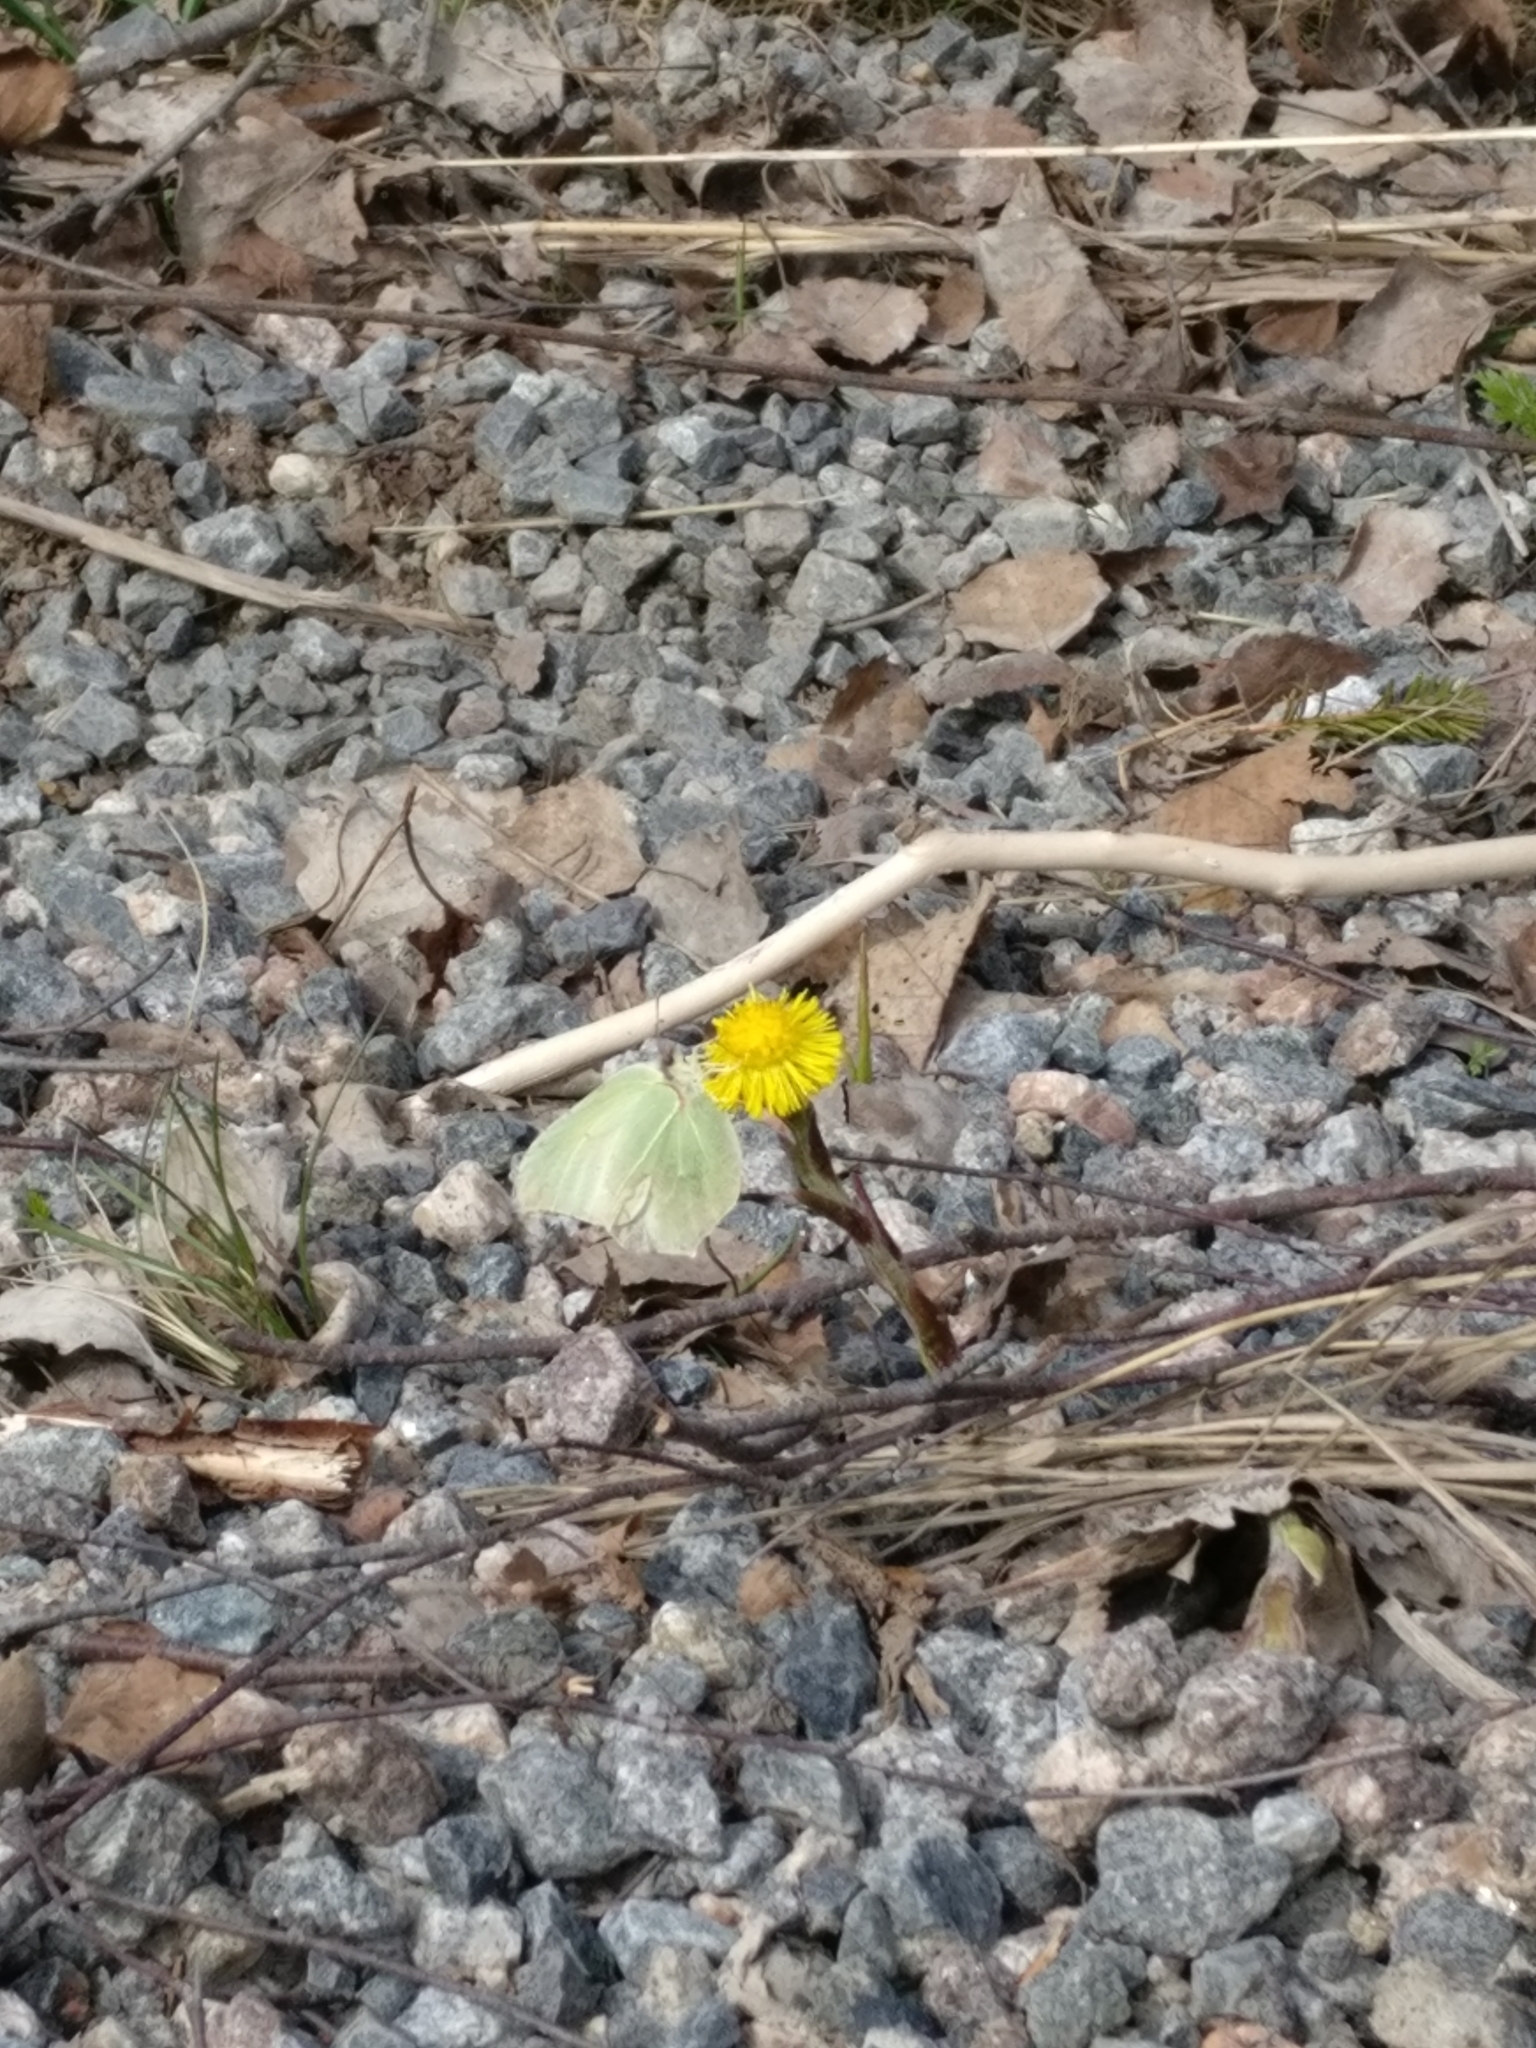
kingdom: Animalia
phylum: Arthropoda
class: Insecta
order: Lepidoptera
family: Pieridae
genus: Gonepteryx
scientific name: Gonepteryx rhamni
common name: Brimstone
